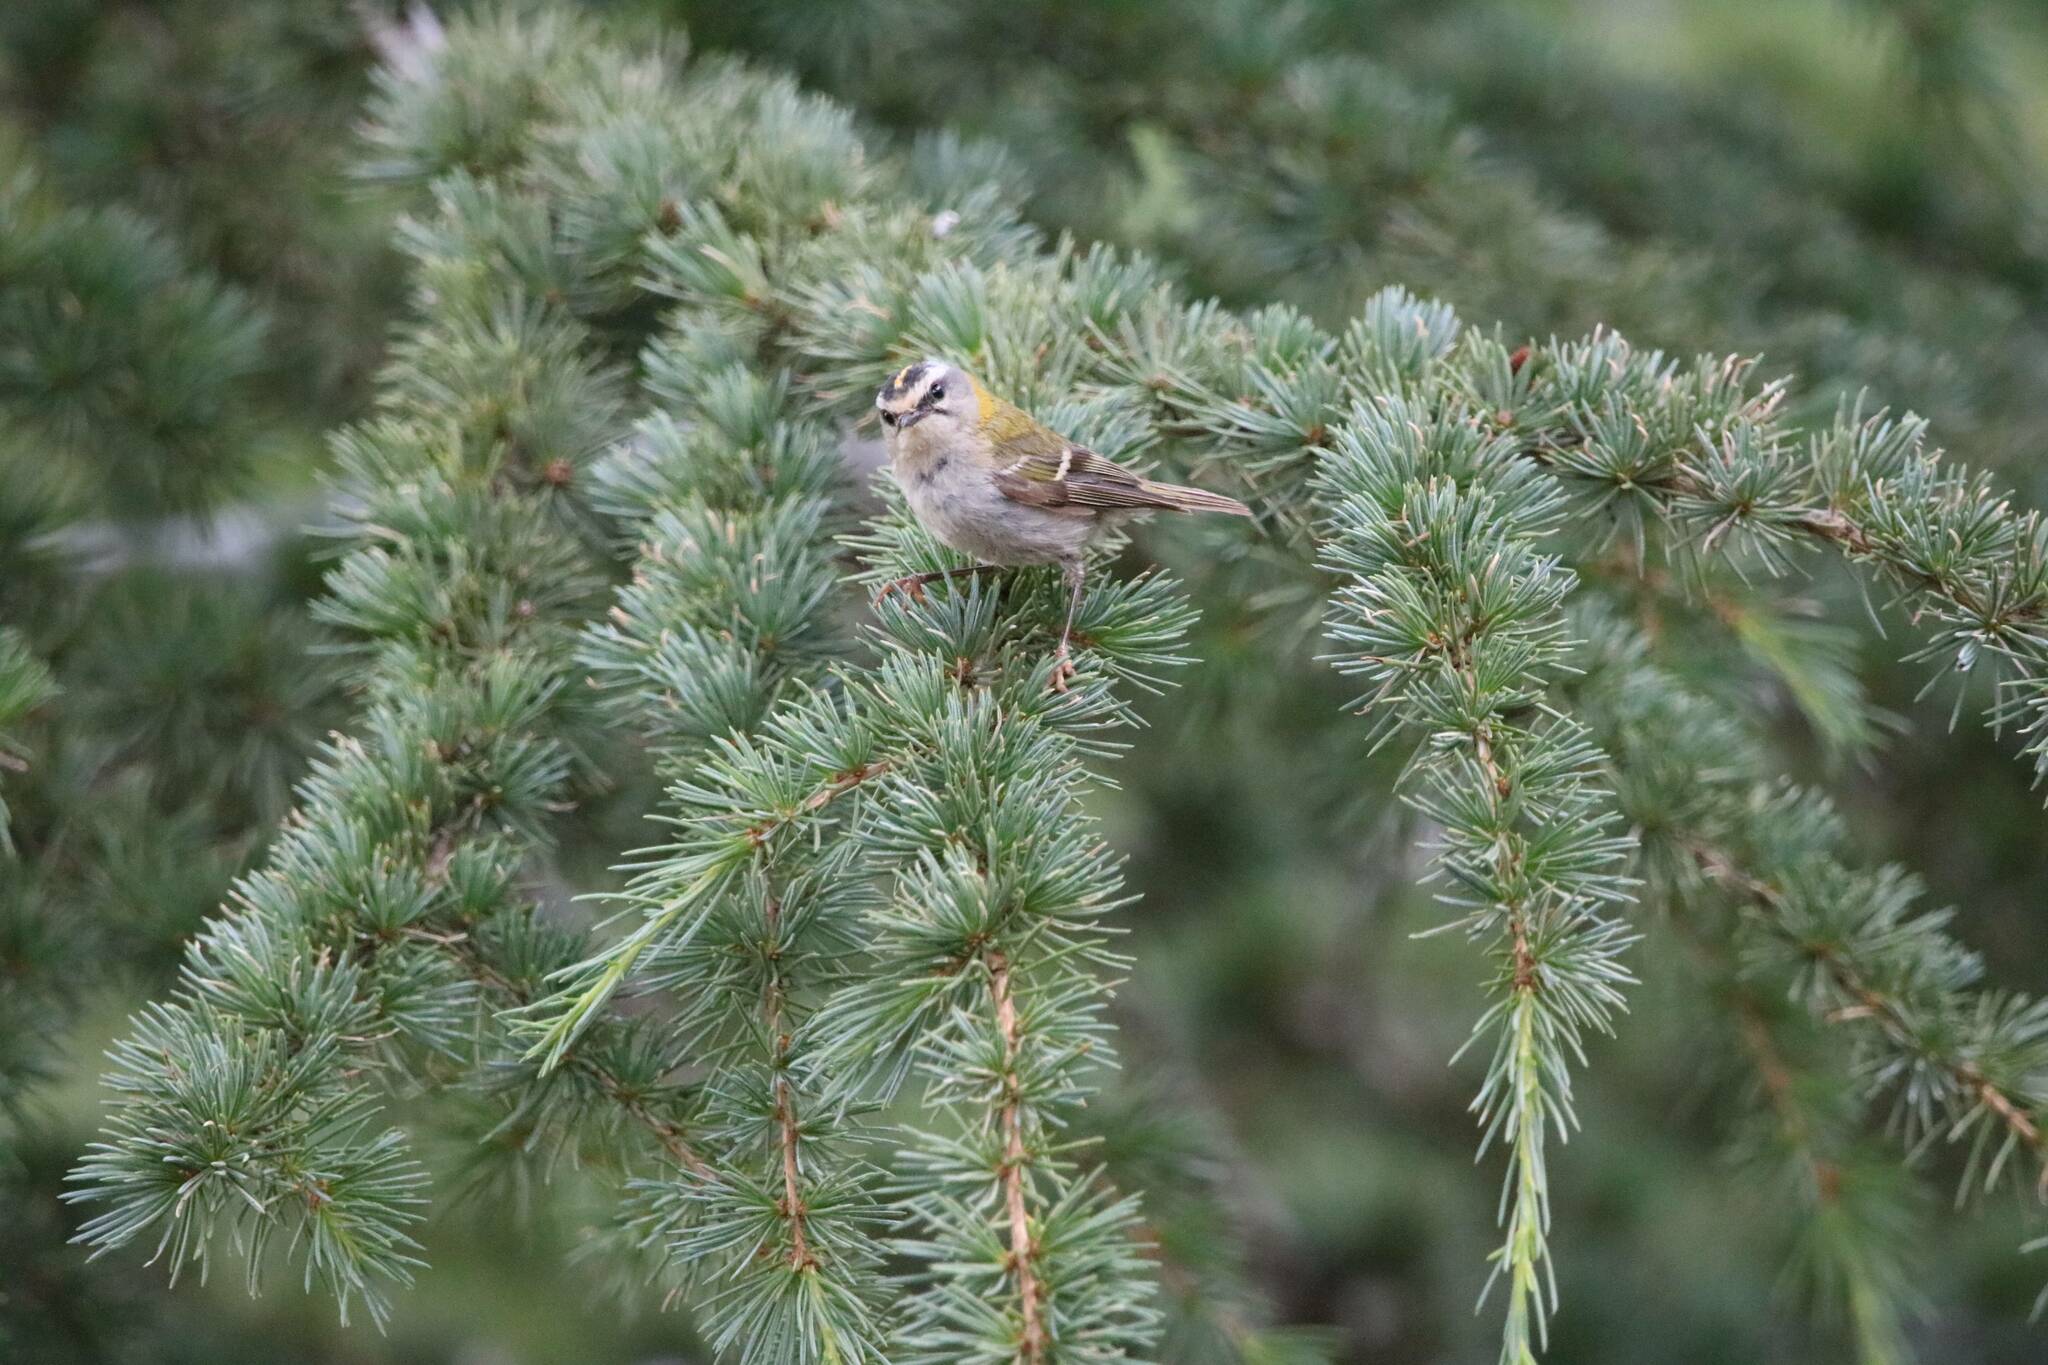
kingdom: Animalia
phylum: Chordata
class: Aves
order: Passeriformes
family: Regulidae
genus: Regulus
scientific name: Regulus ignicapilla
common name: Firecrest
